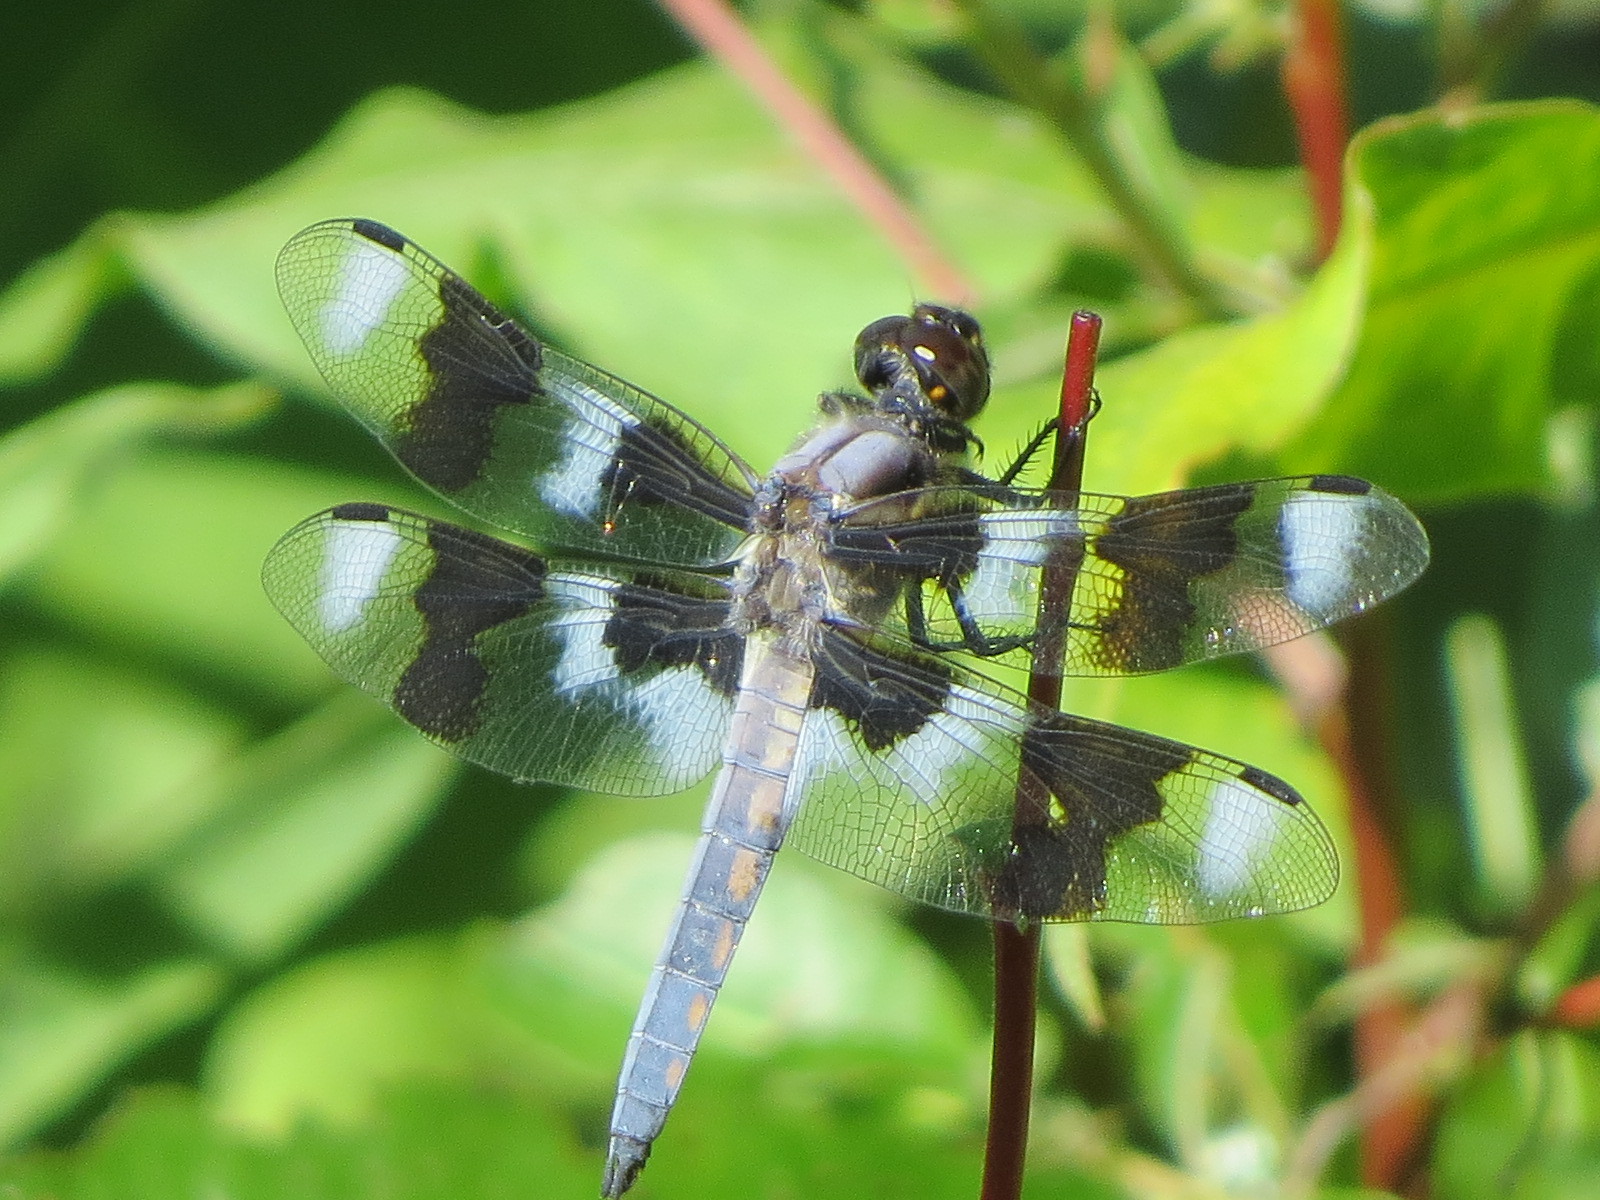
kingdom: Animalia
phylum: Arthropoda
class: Insecta
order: Odonata
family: Libellulidae
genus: Libellula
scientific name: Libellula forensis
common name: Eight-spotted skimmer
